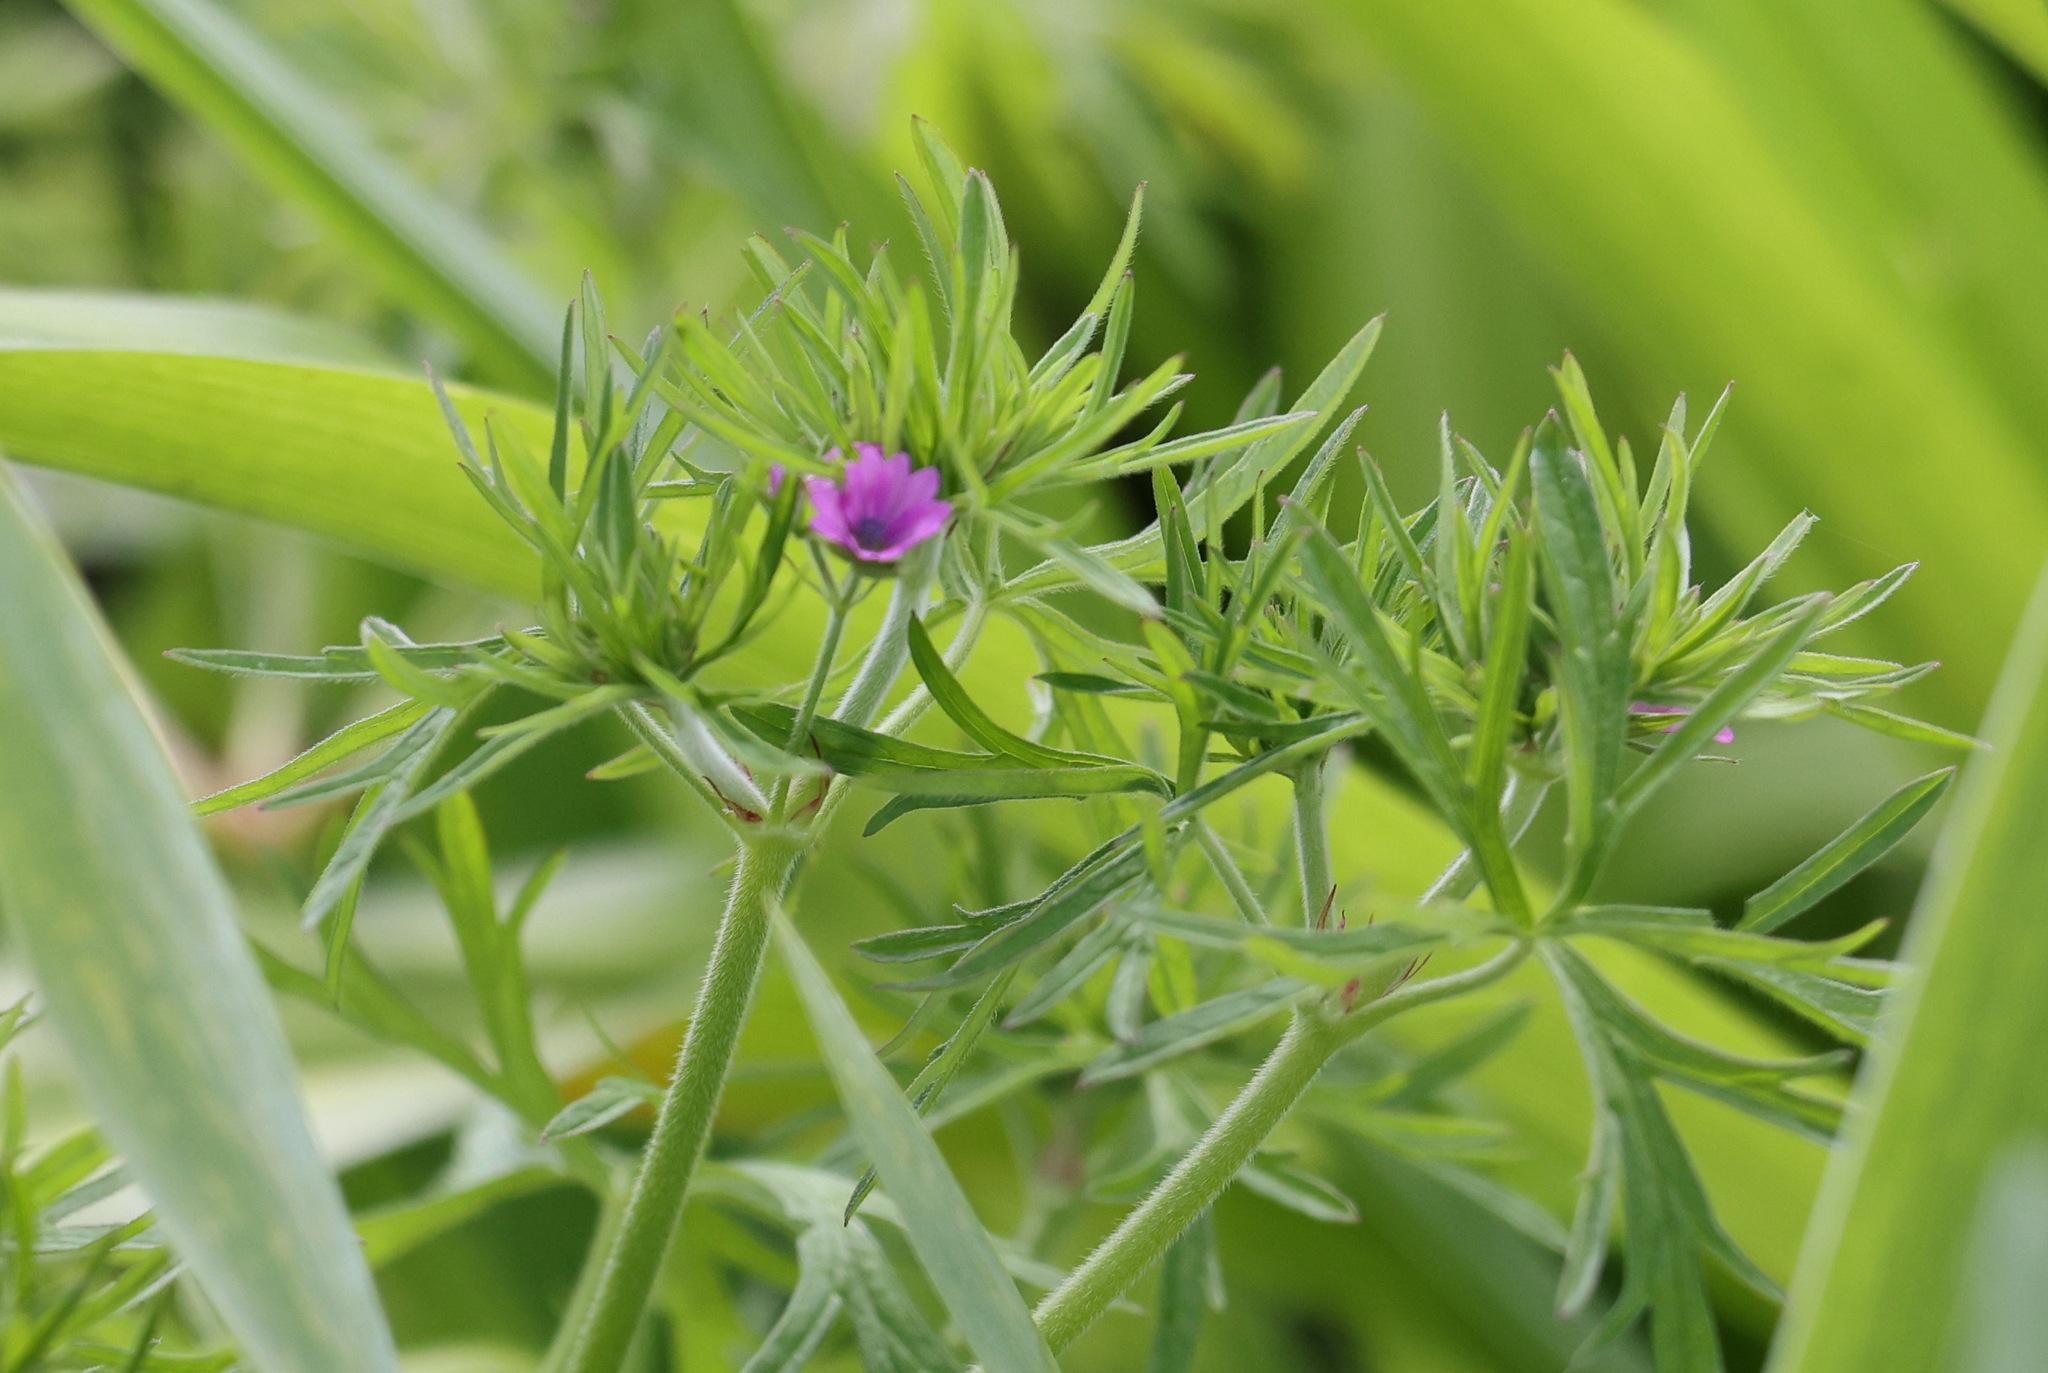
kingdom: Plantae
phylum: Tracheophyta
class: Magnoliopsida
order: Geraniales
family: Geraniaceae
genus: Geranium
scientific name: Geranium dissectum
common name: Cut-leaved crane's-bill
